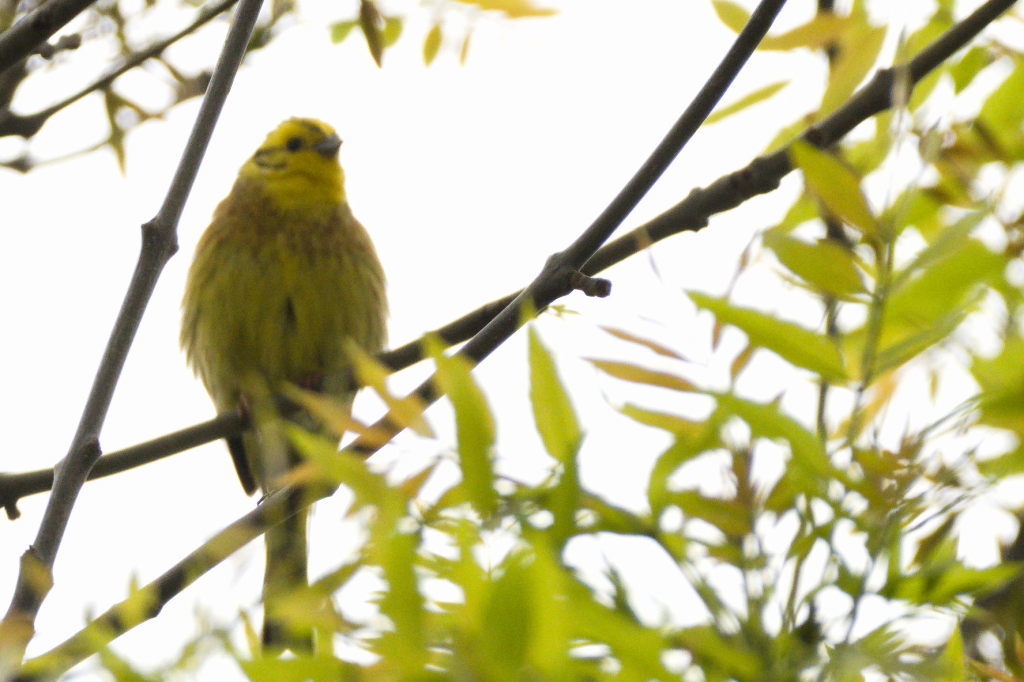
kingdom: Animalia
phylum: Chordata
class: Aves
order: Passeriformes
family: Emberizidae
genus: Emberiza
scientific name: Emberiza citrinella
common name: Yellowhammer
